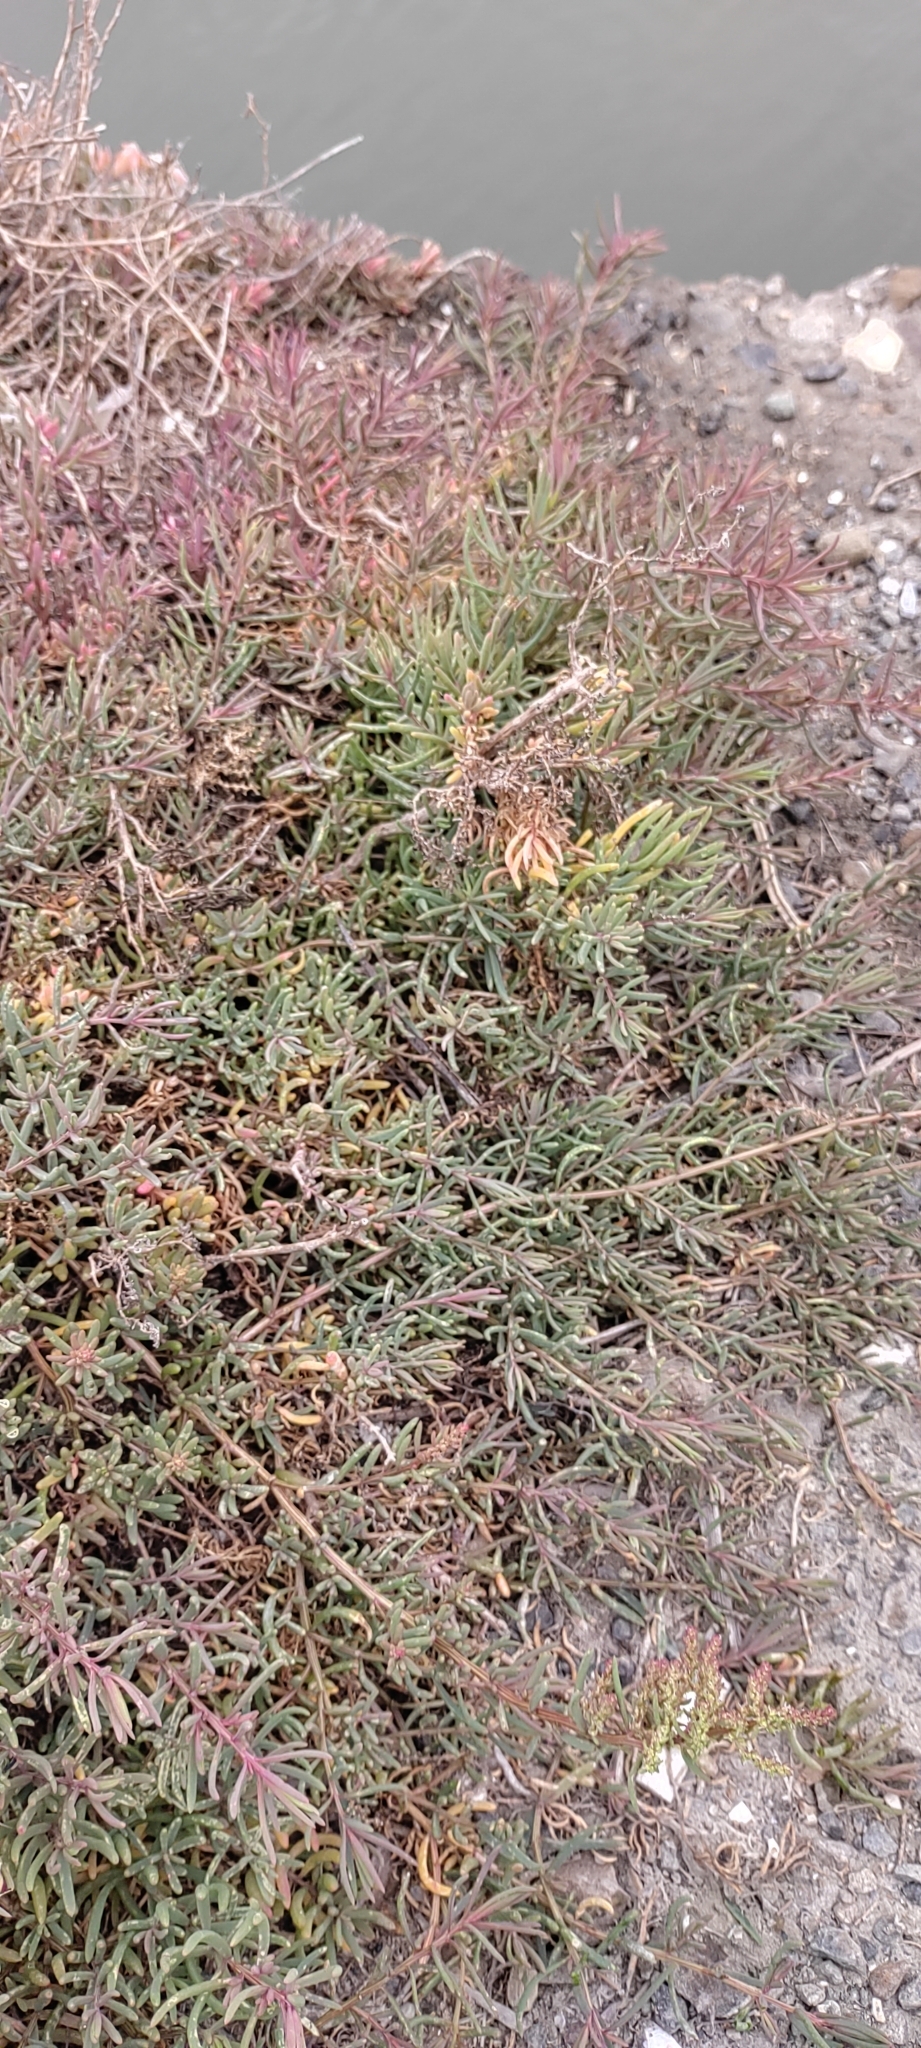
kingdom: Plantae
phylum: Tracheophyta
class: Magnoliopsida
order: Caryophyllales
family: Amaranthaceae
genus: Suaeda
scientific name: Suaeda maritima
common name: Annual sea-blite
